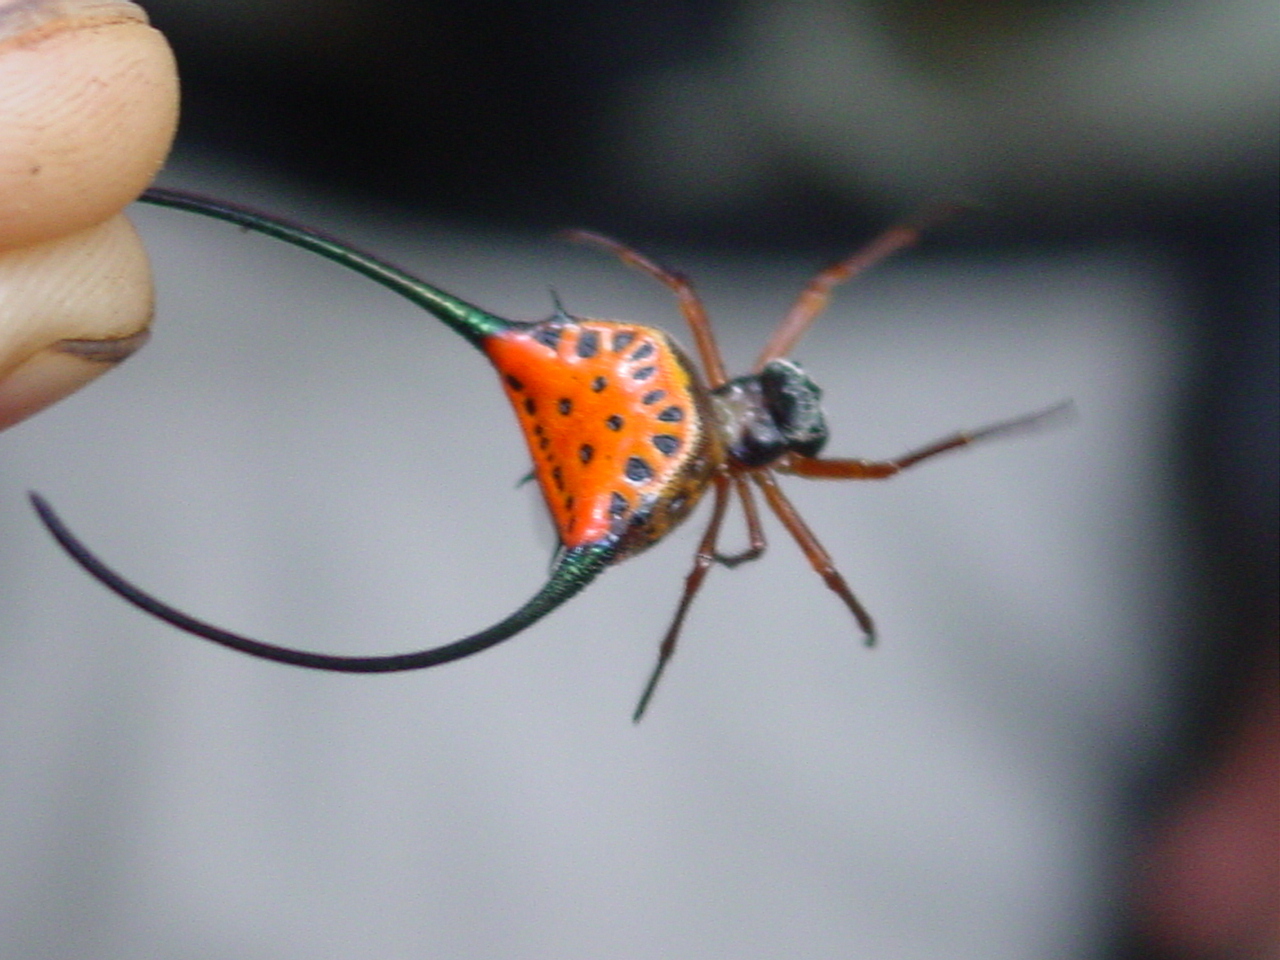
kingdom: Animalia
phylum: Arthropoda
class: Arachnida
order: Araneae
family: Araneidae
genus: Macracantha
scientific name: Macracantha arcuata
